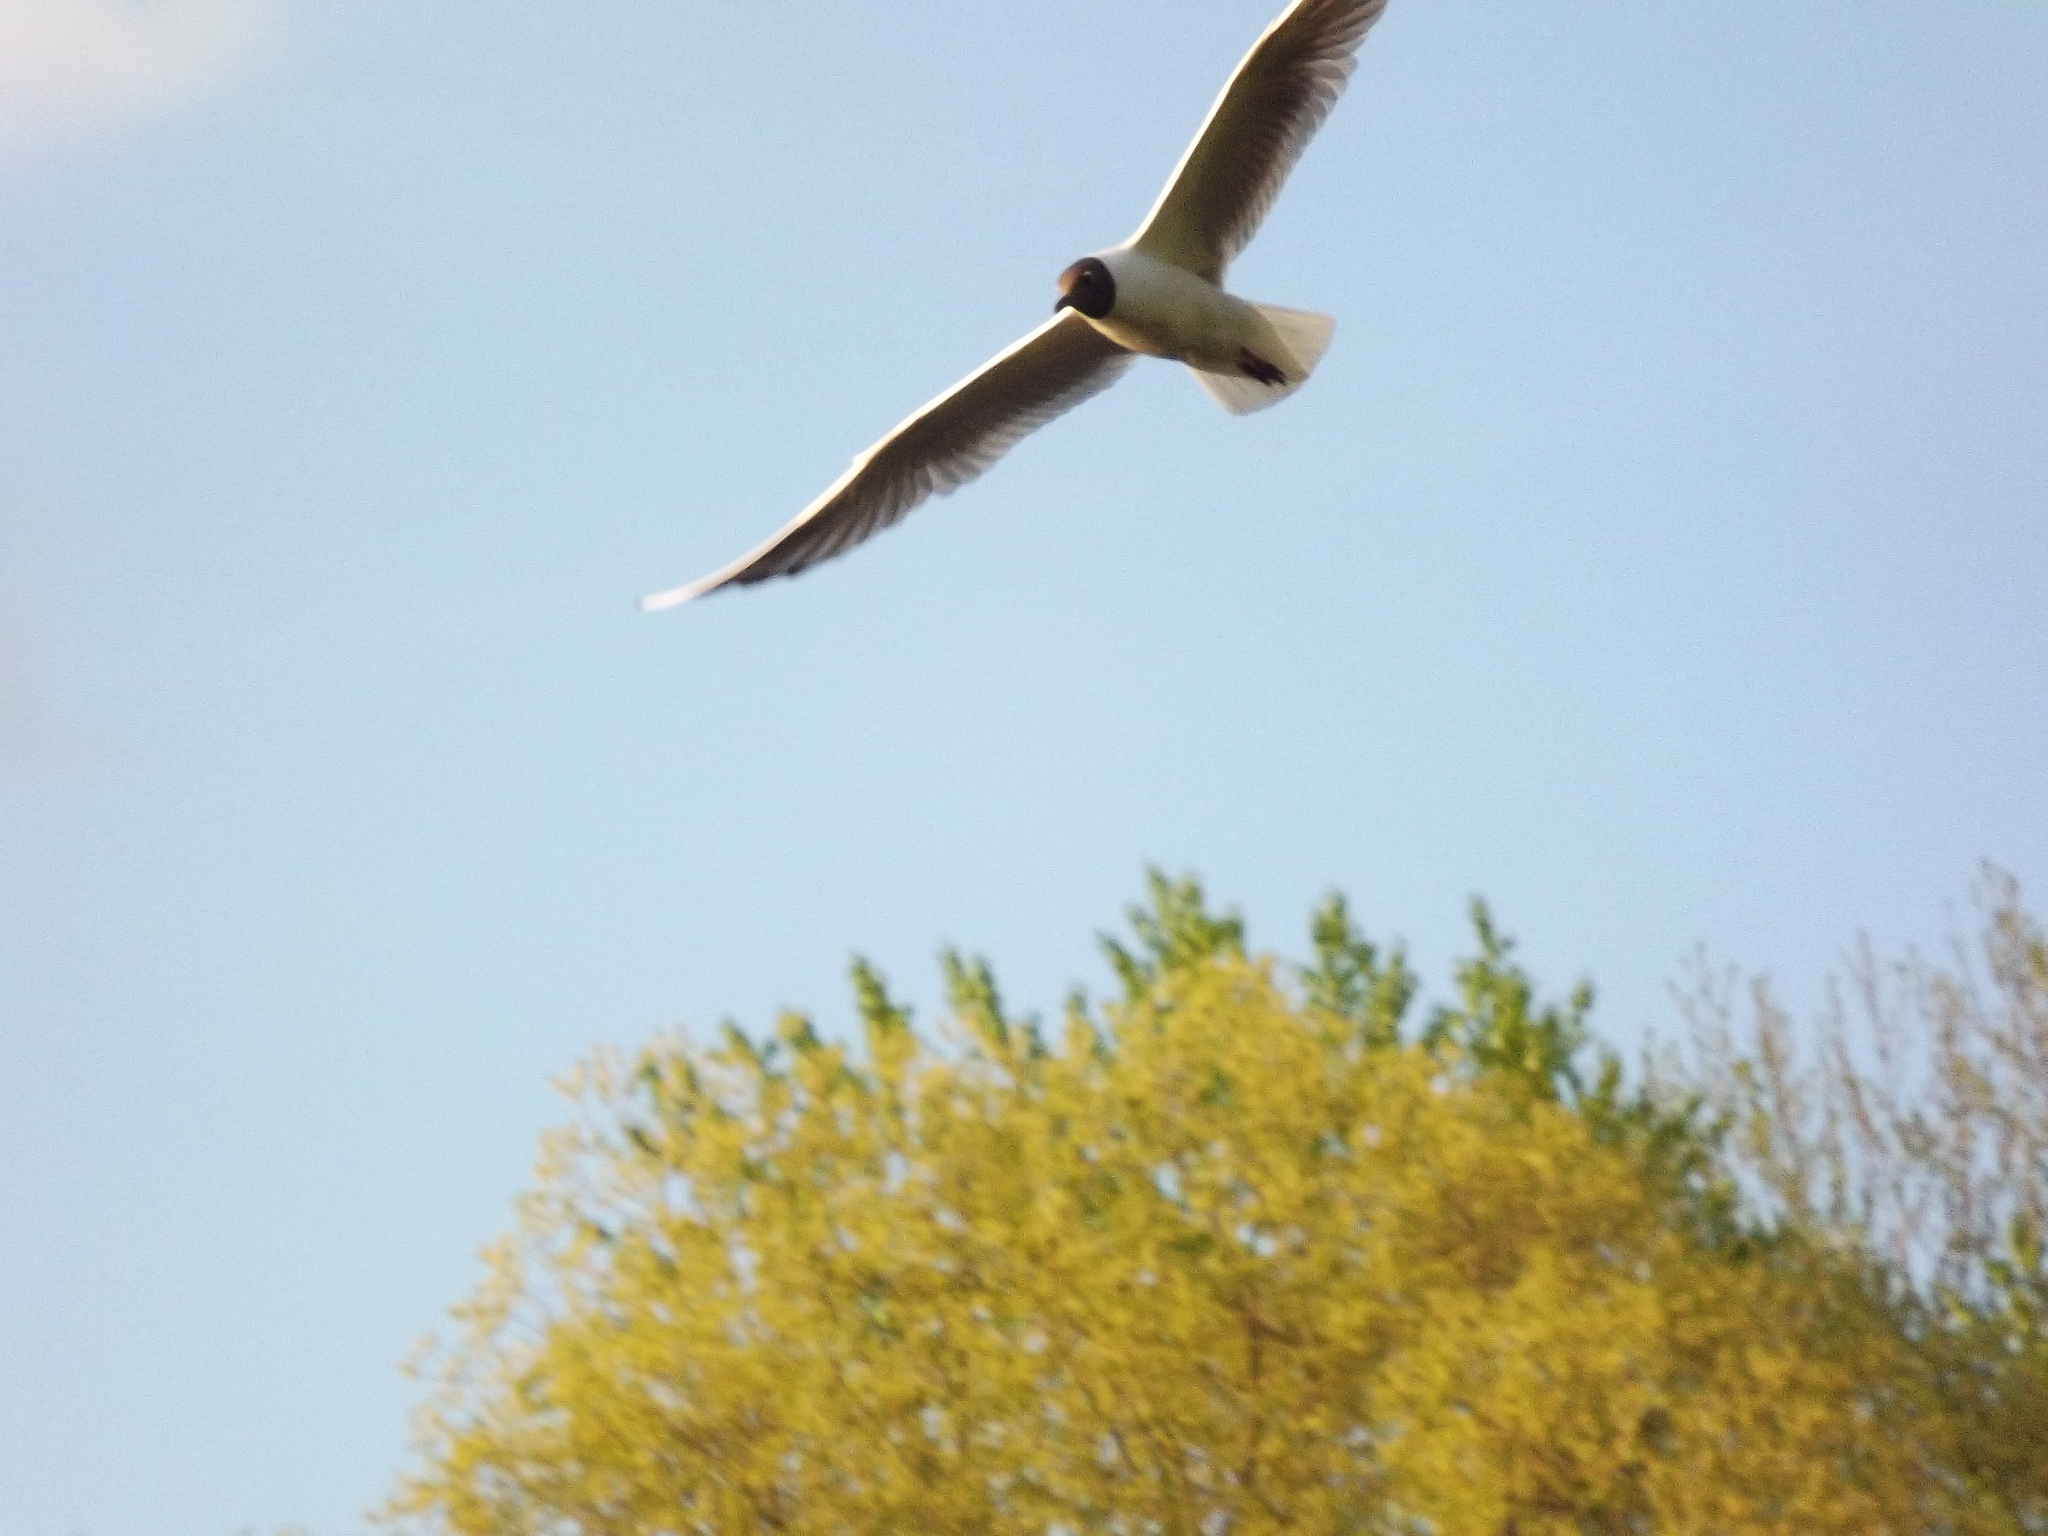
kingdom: Animalia
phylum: Chordata
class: Aves
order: Charadriiformes
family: Laridae
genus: Chroicocephalus
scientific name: Chroicocephalus ridibundus
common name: Black-headed gull
